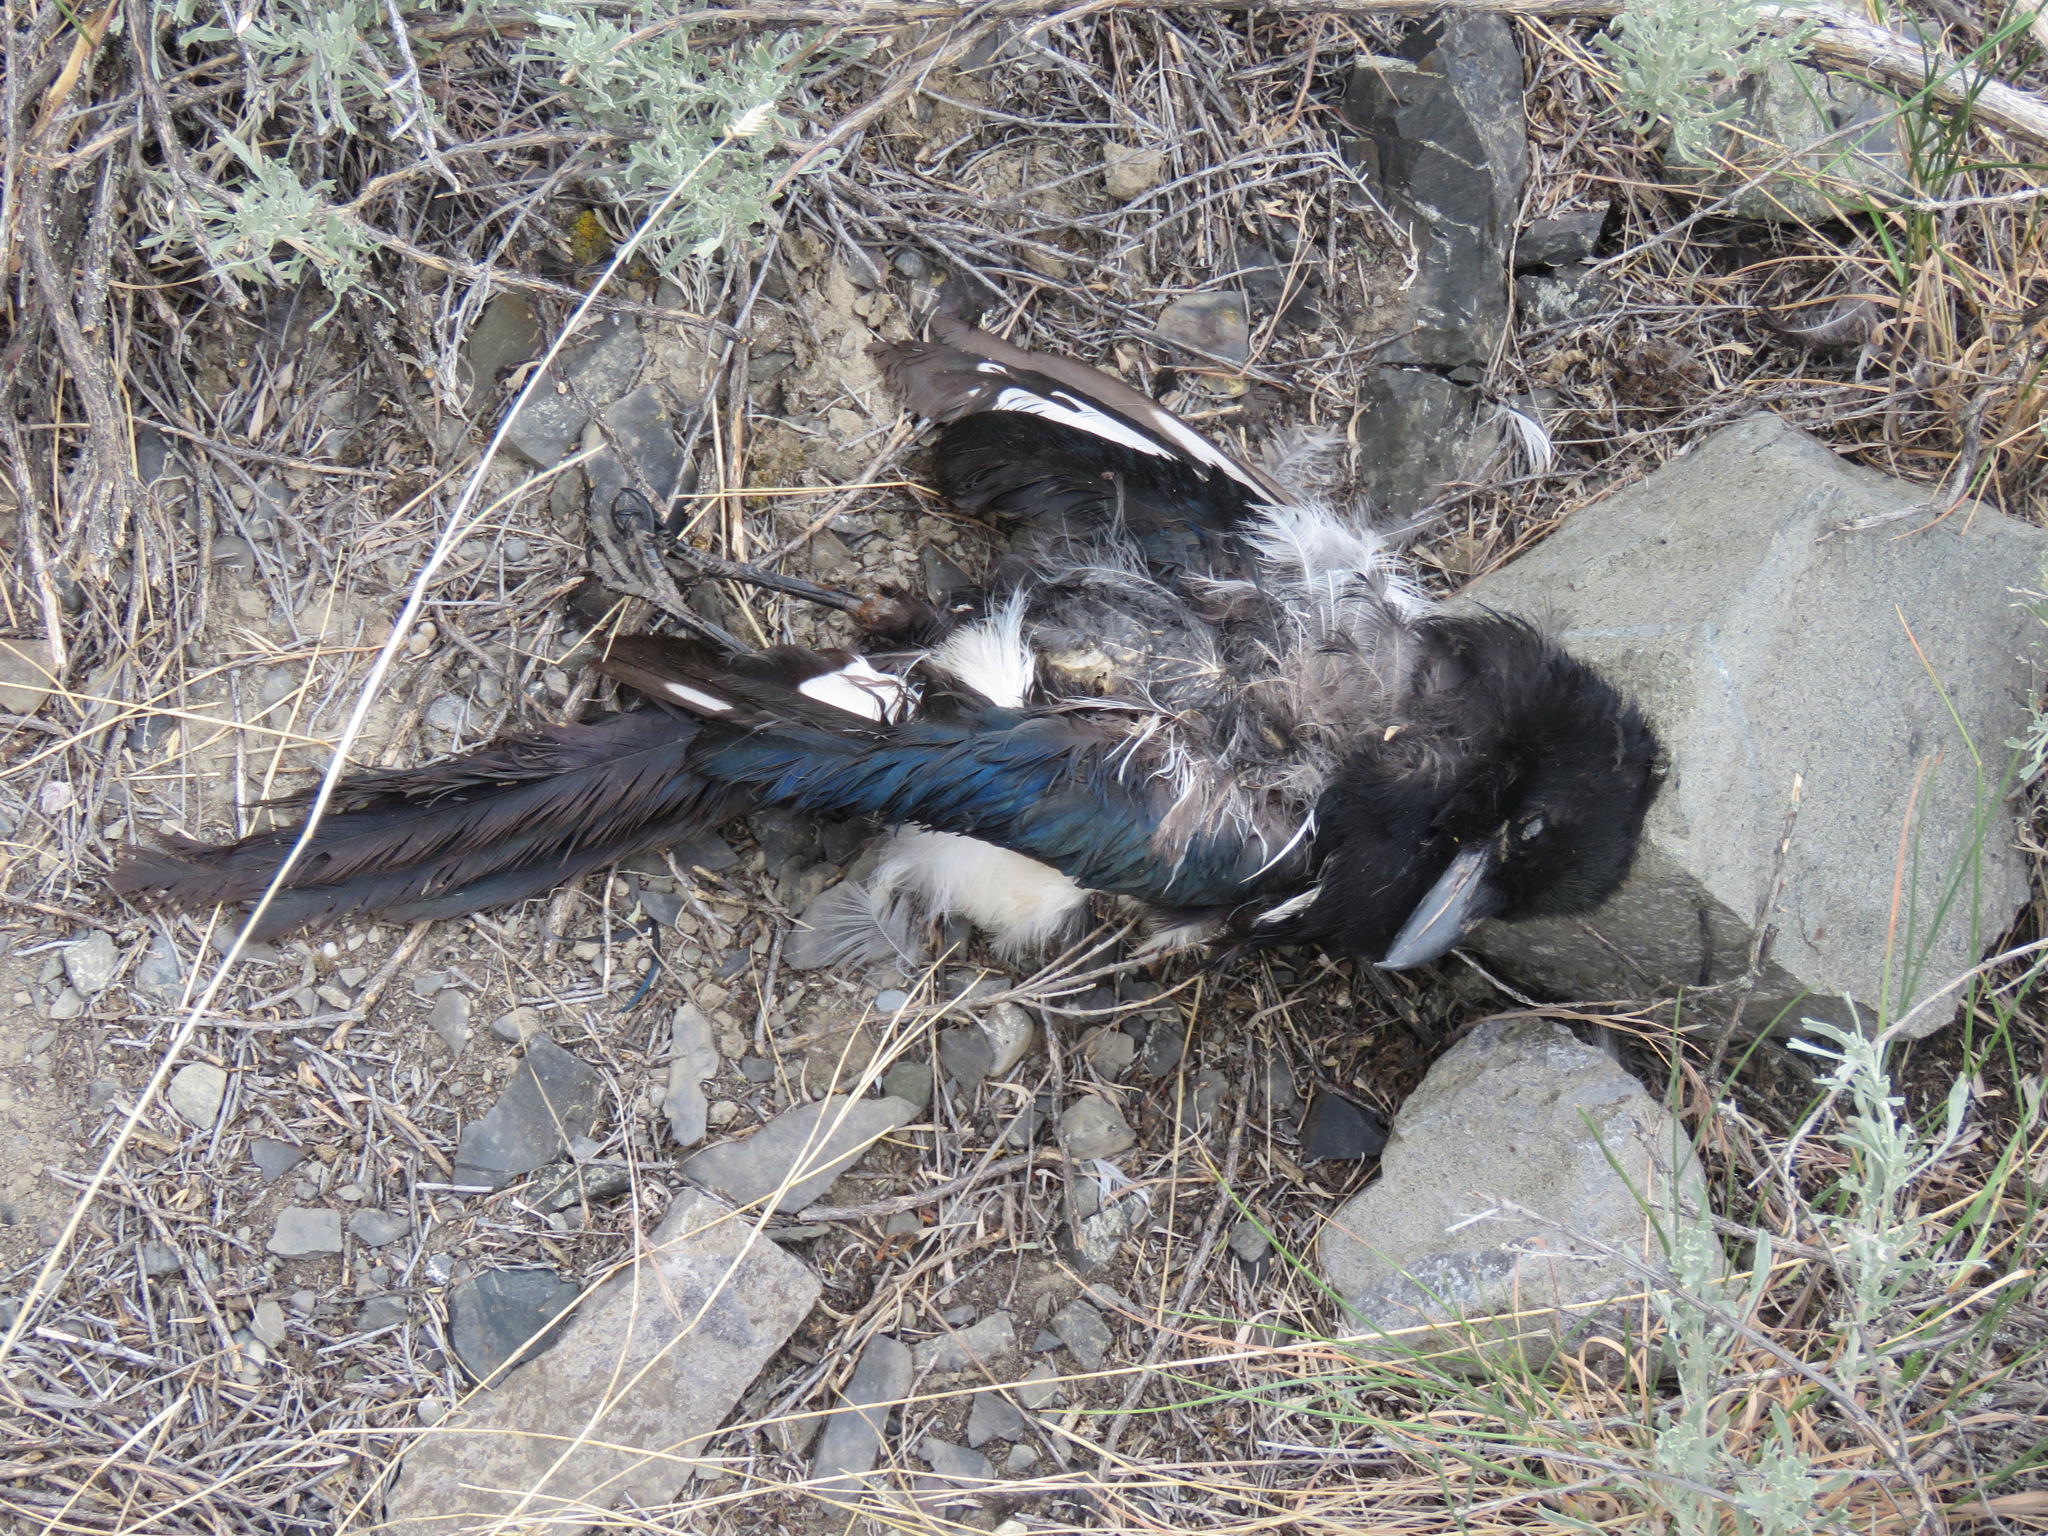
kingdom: Animalia
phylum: Chordata
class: Aves
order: Passeriformes
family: Corvidae
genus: Pica
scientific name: Pica hudsonia
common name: Black-billed magpie
